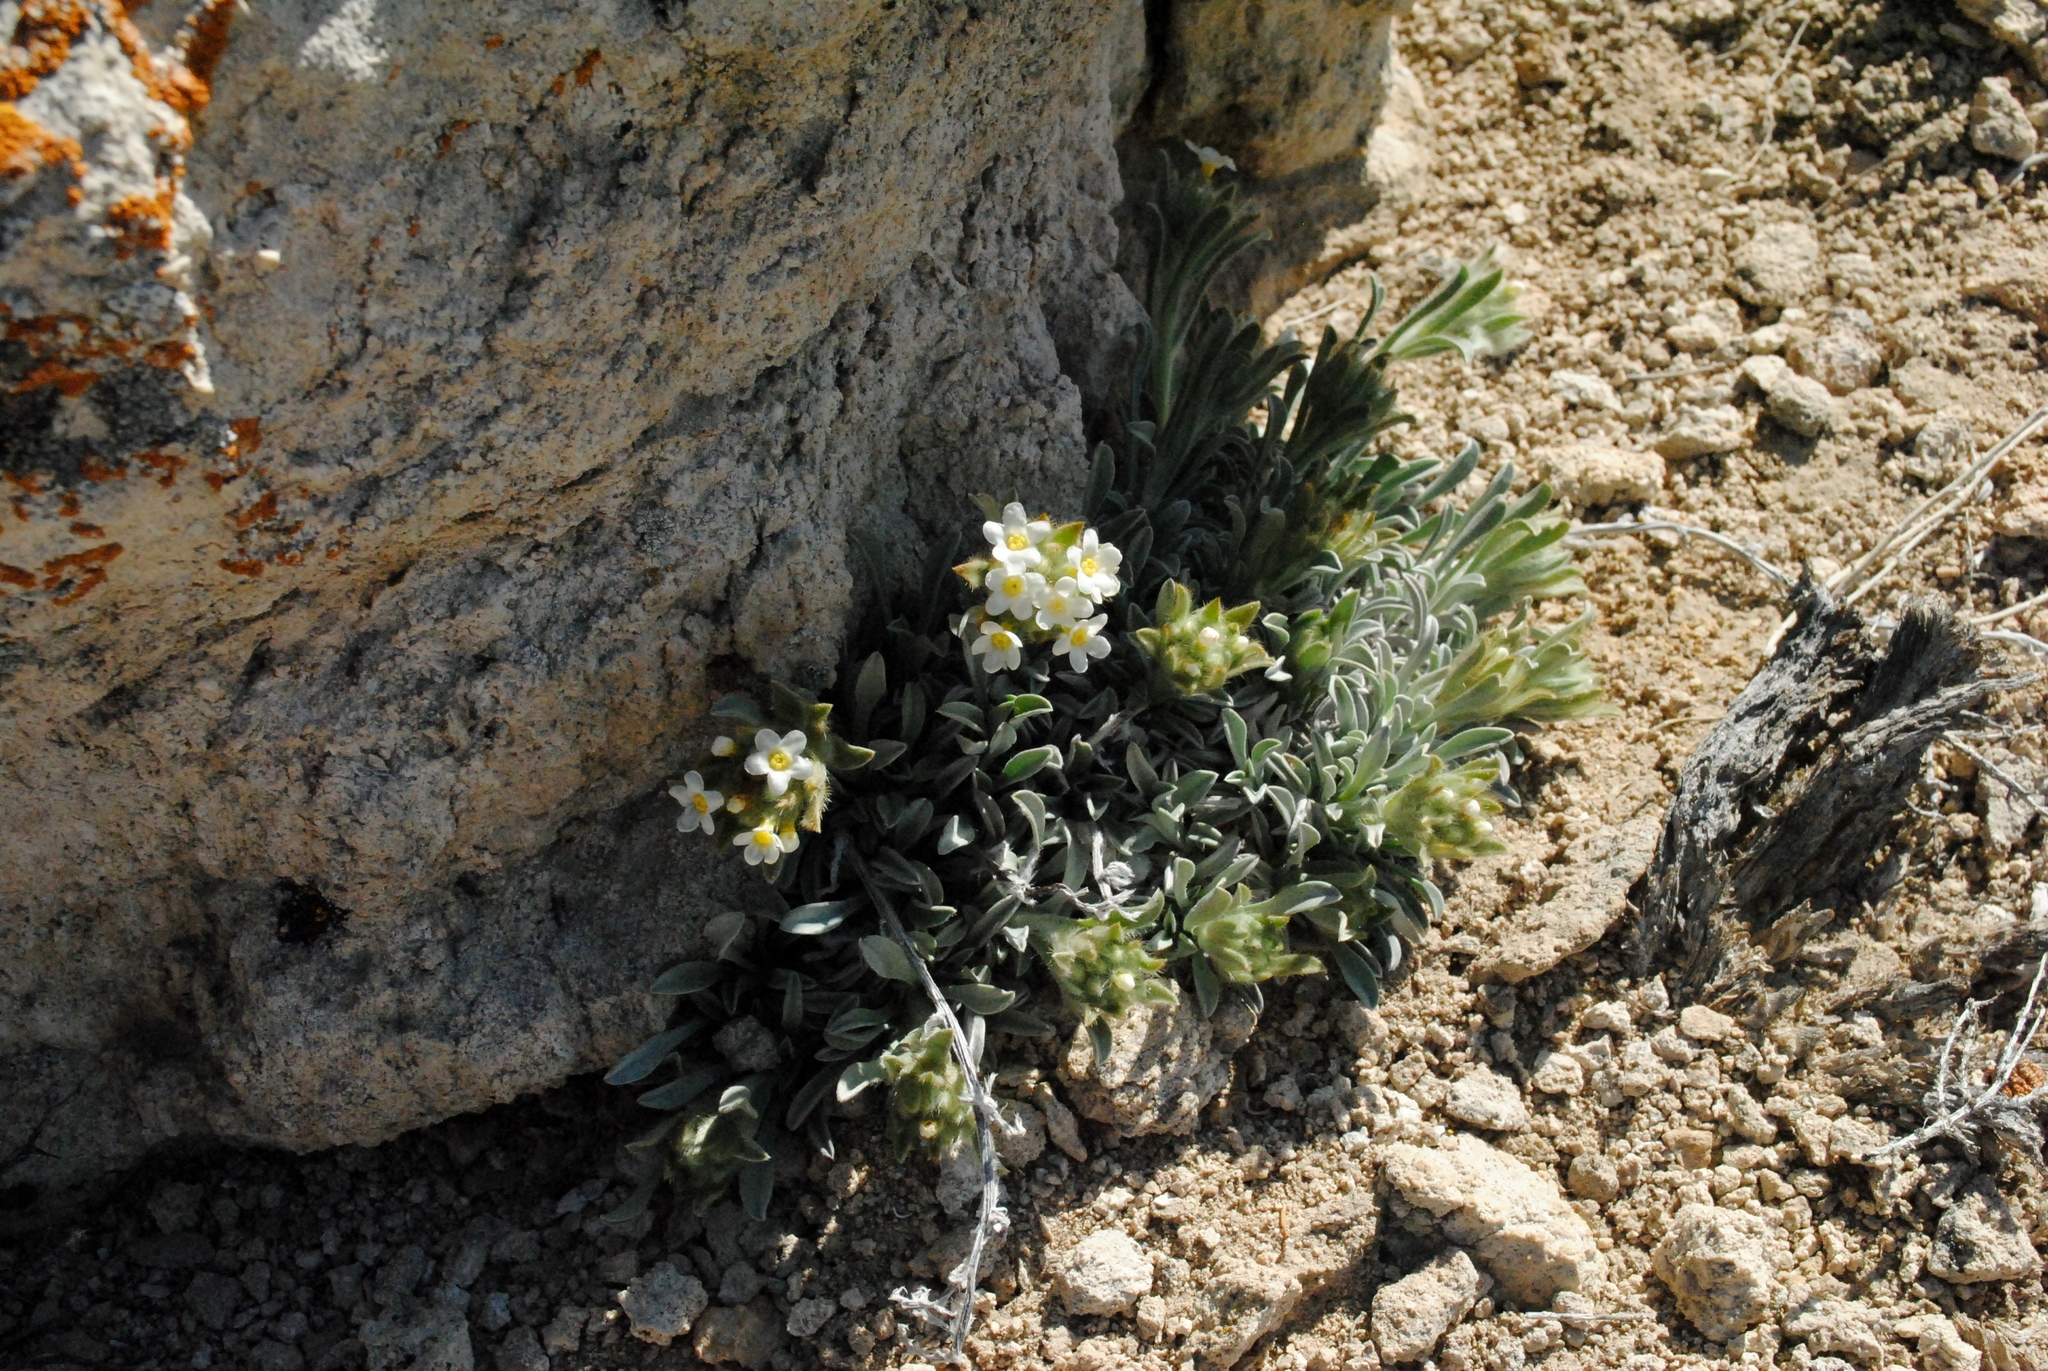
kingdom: Plantae
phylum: Tracheophyta
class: Magnoliopsida
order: Boraginales
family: Boraginaceae
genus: Oreocarya
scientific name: Oreocarya humilis
